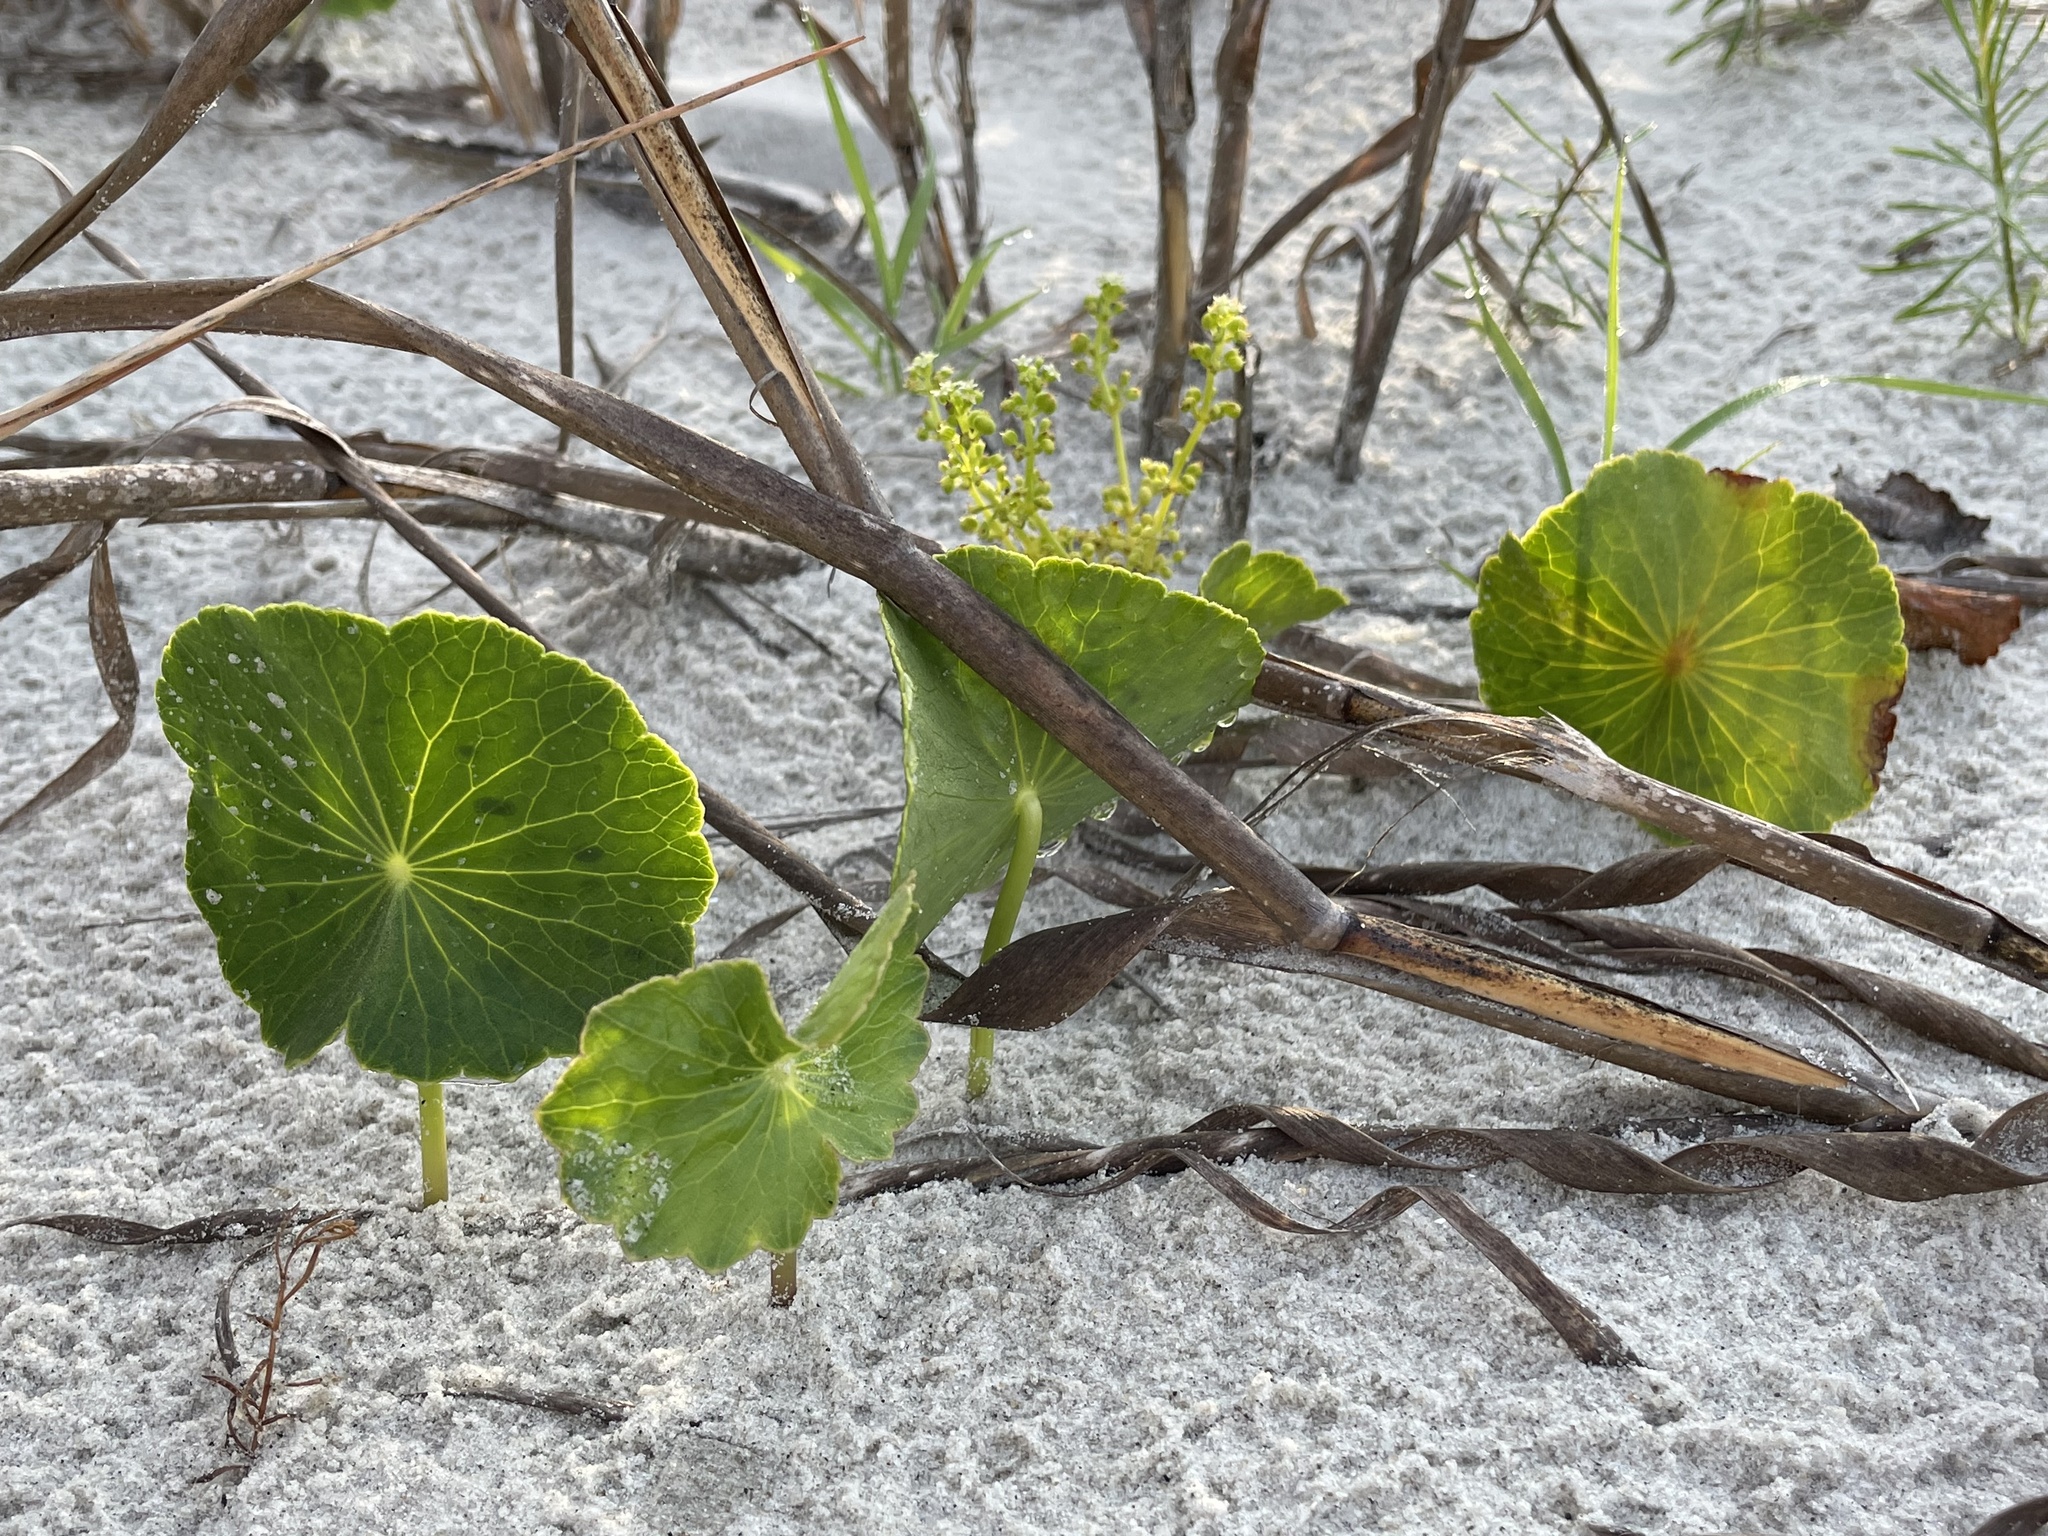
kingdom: Plantae
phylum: Tracheophyta
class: Magnoliopsida
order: Apiales
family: Araliaceae
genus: Hydrocotyle
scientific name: Hydrocotyle bonariensis
